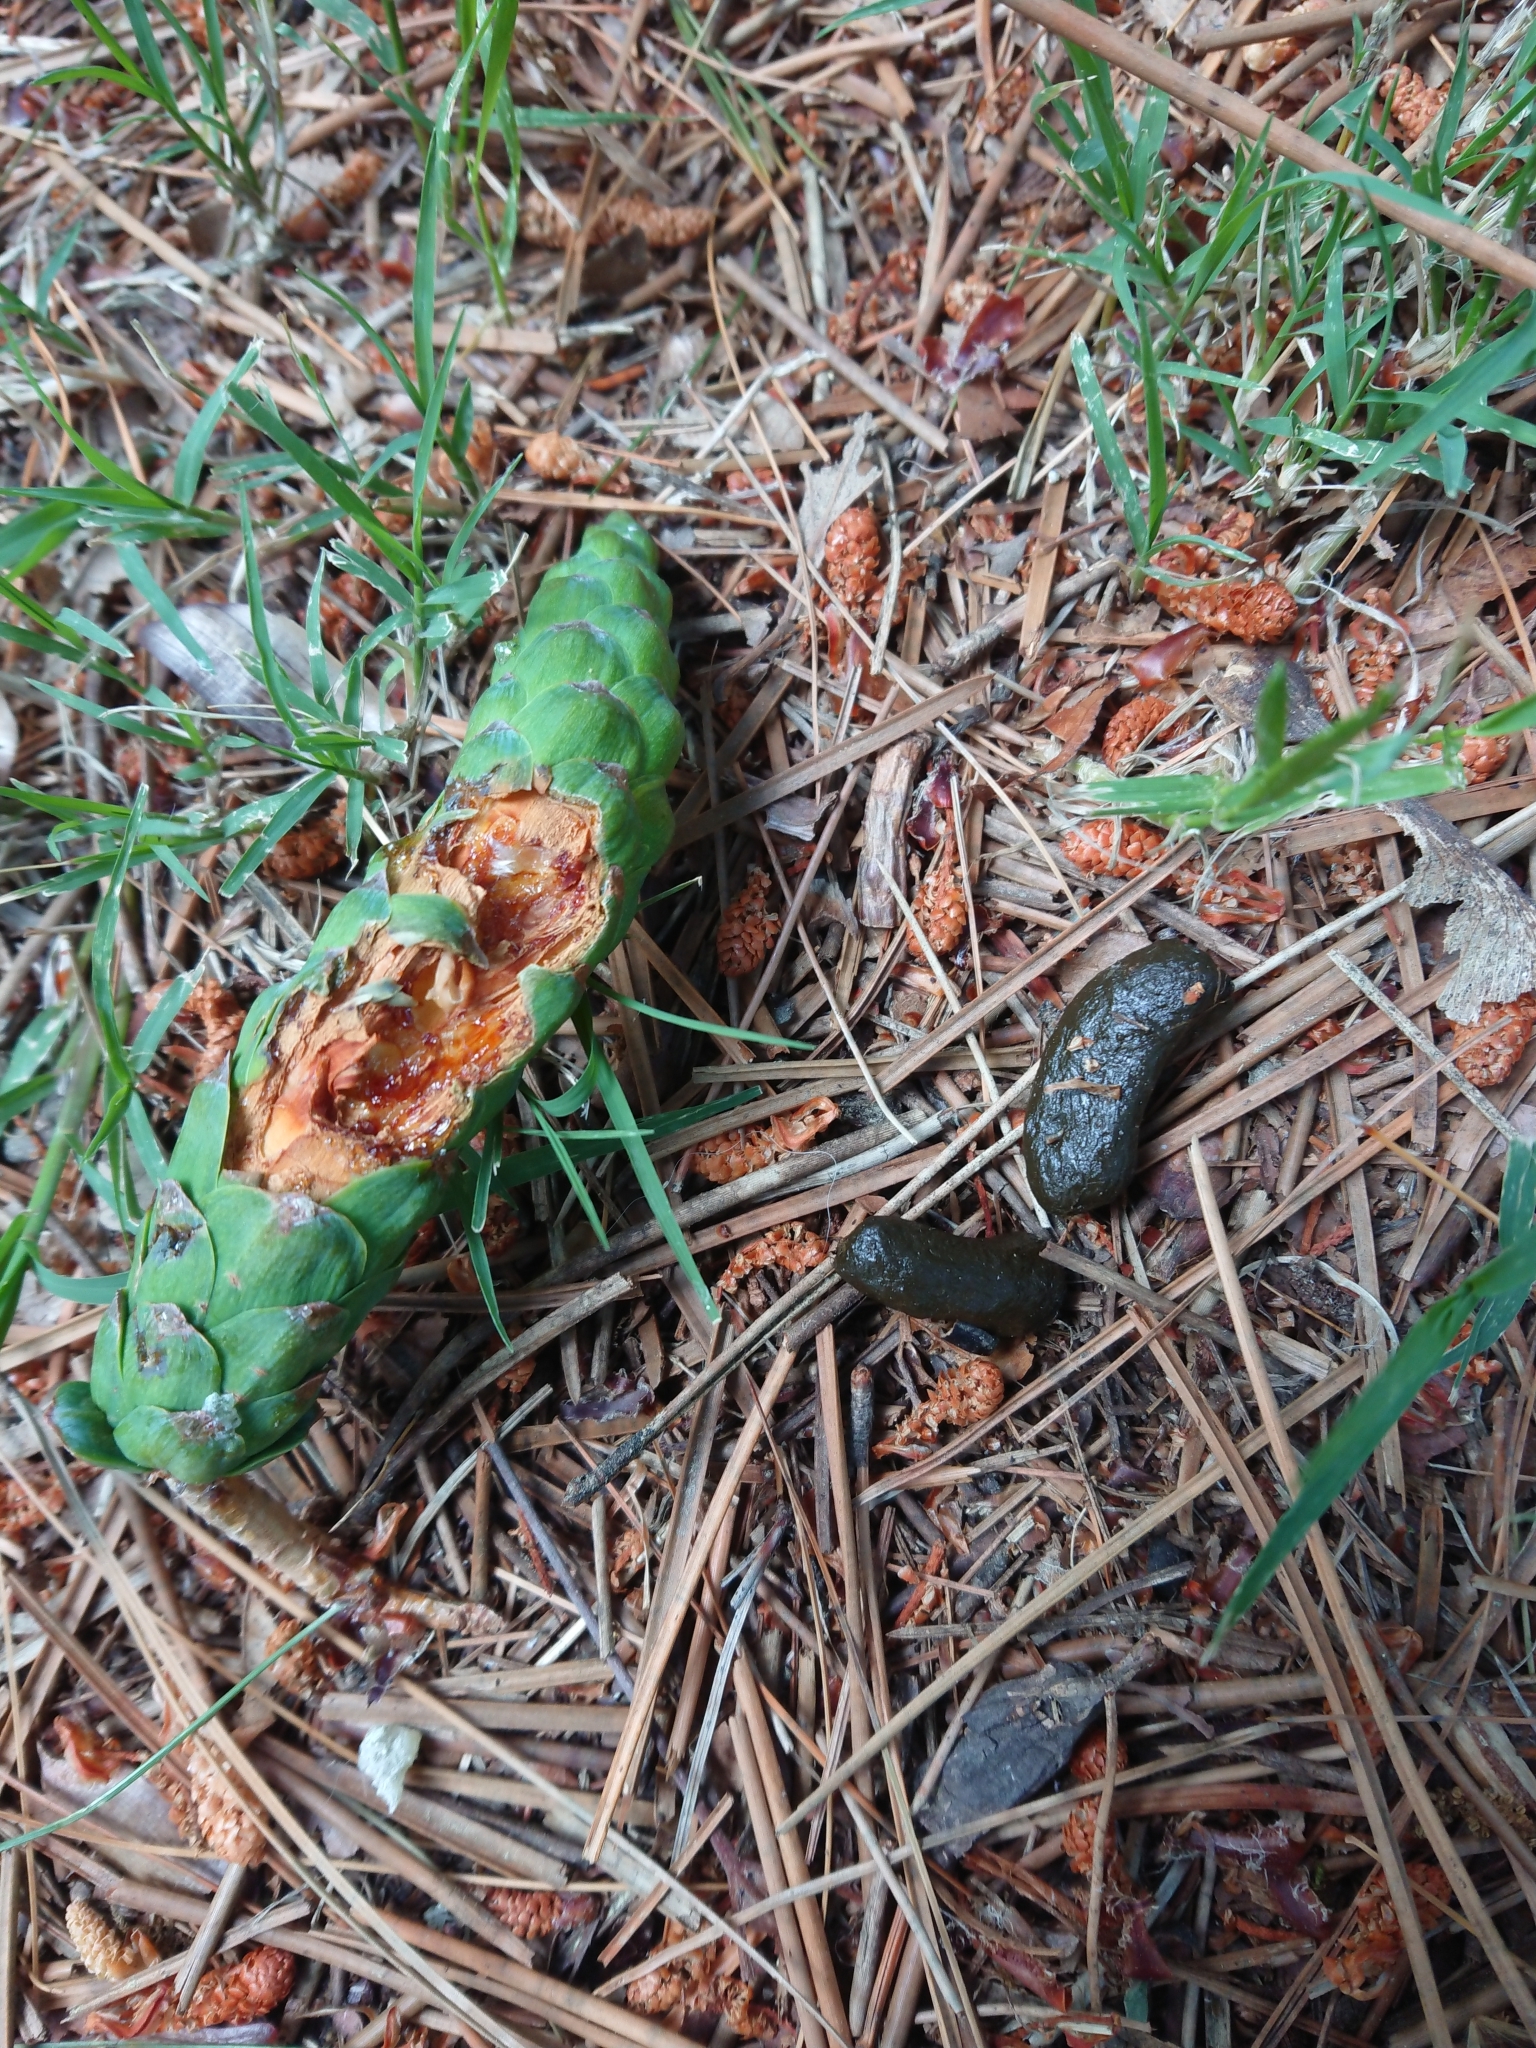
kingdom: Animalia
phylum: Chordata
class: Mammalia
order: Diprotodontia
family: Phalangeridae
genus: Trichosurus
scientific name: Trichosurus vulpecula
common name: Common brushtail
